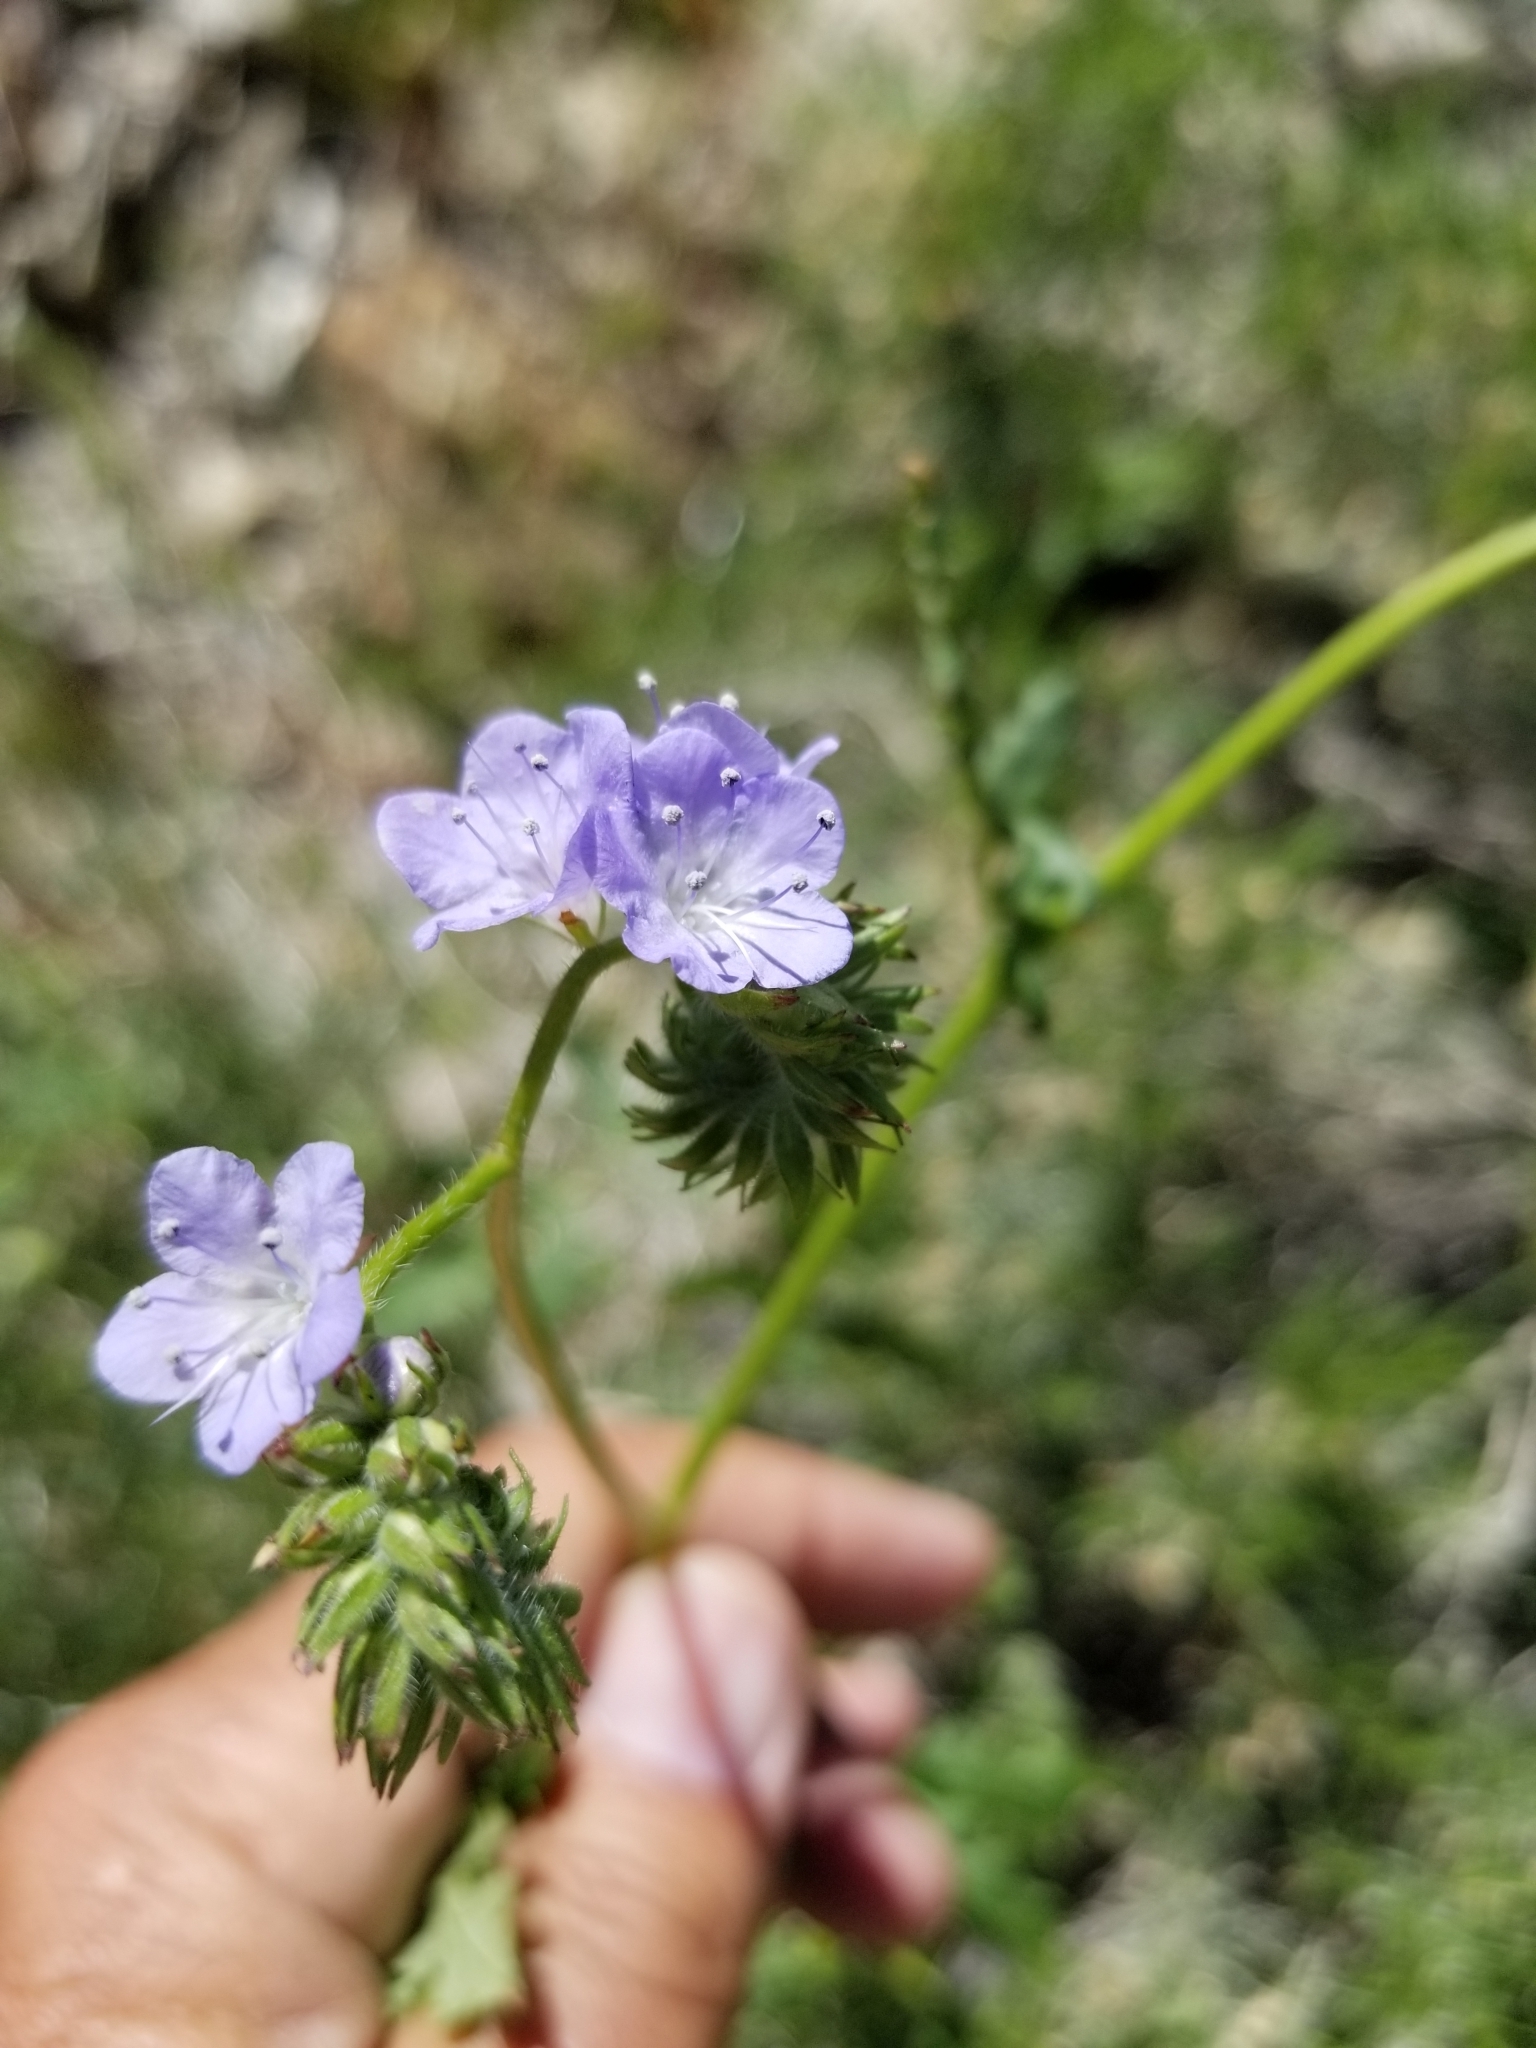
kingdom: Plantae
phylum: Tracheophyta
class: Magnoliopsida
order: Boraginales
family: Hydrophyllaceae
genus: Phacelia
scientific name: Phacelia distans
